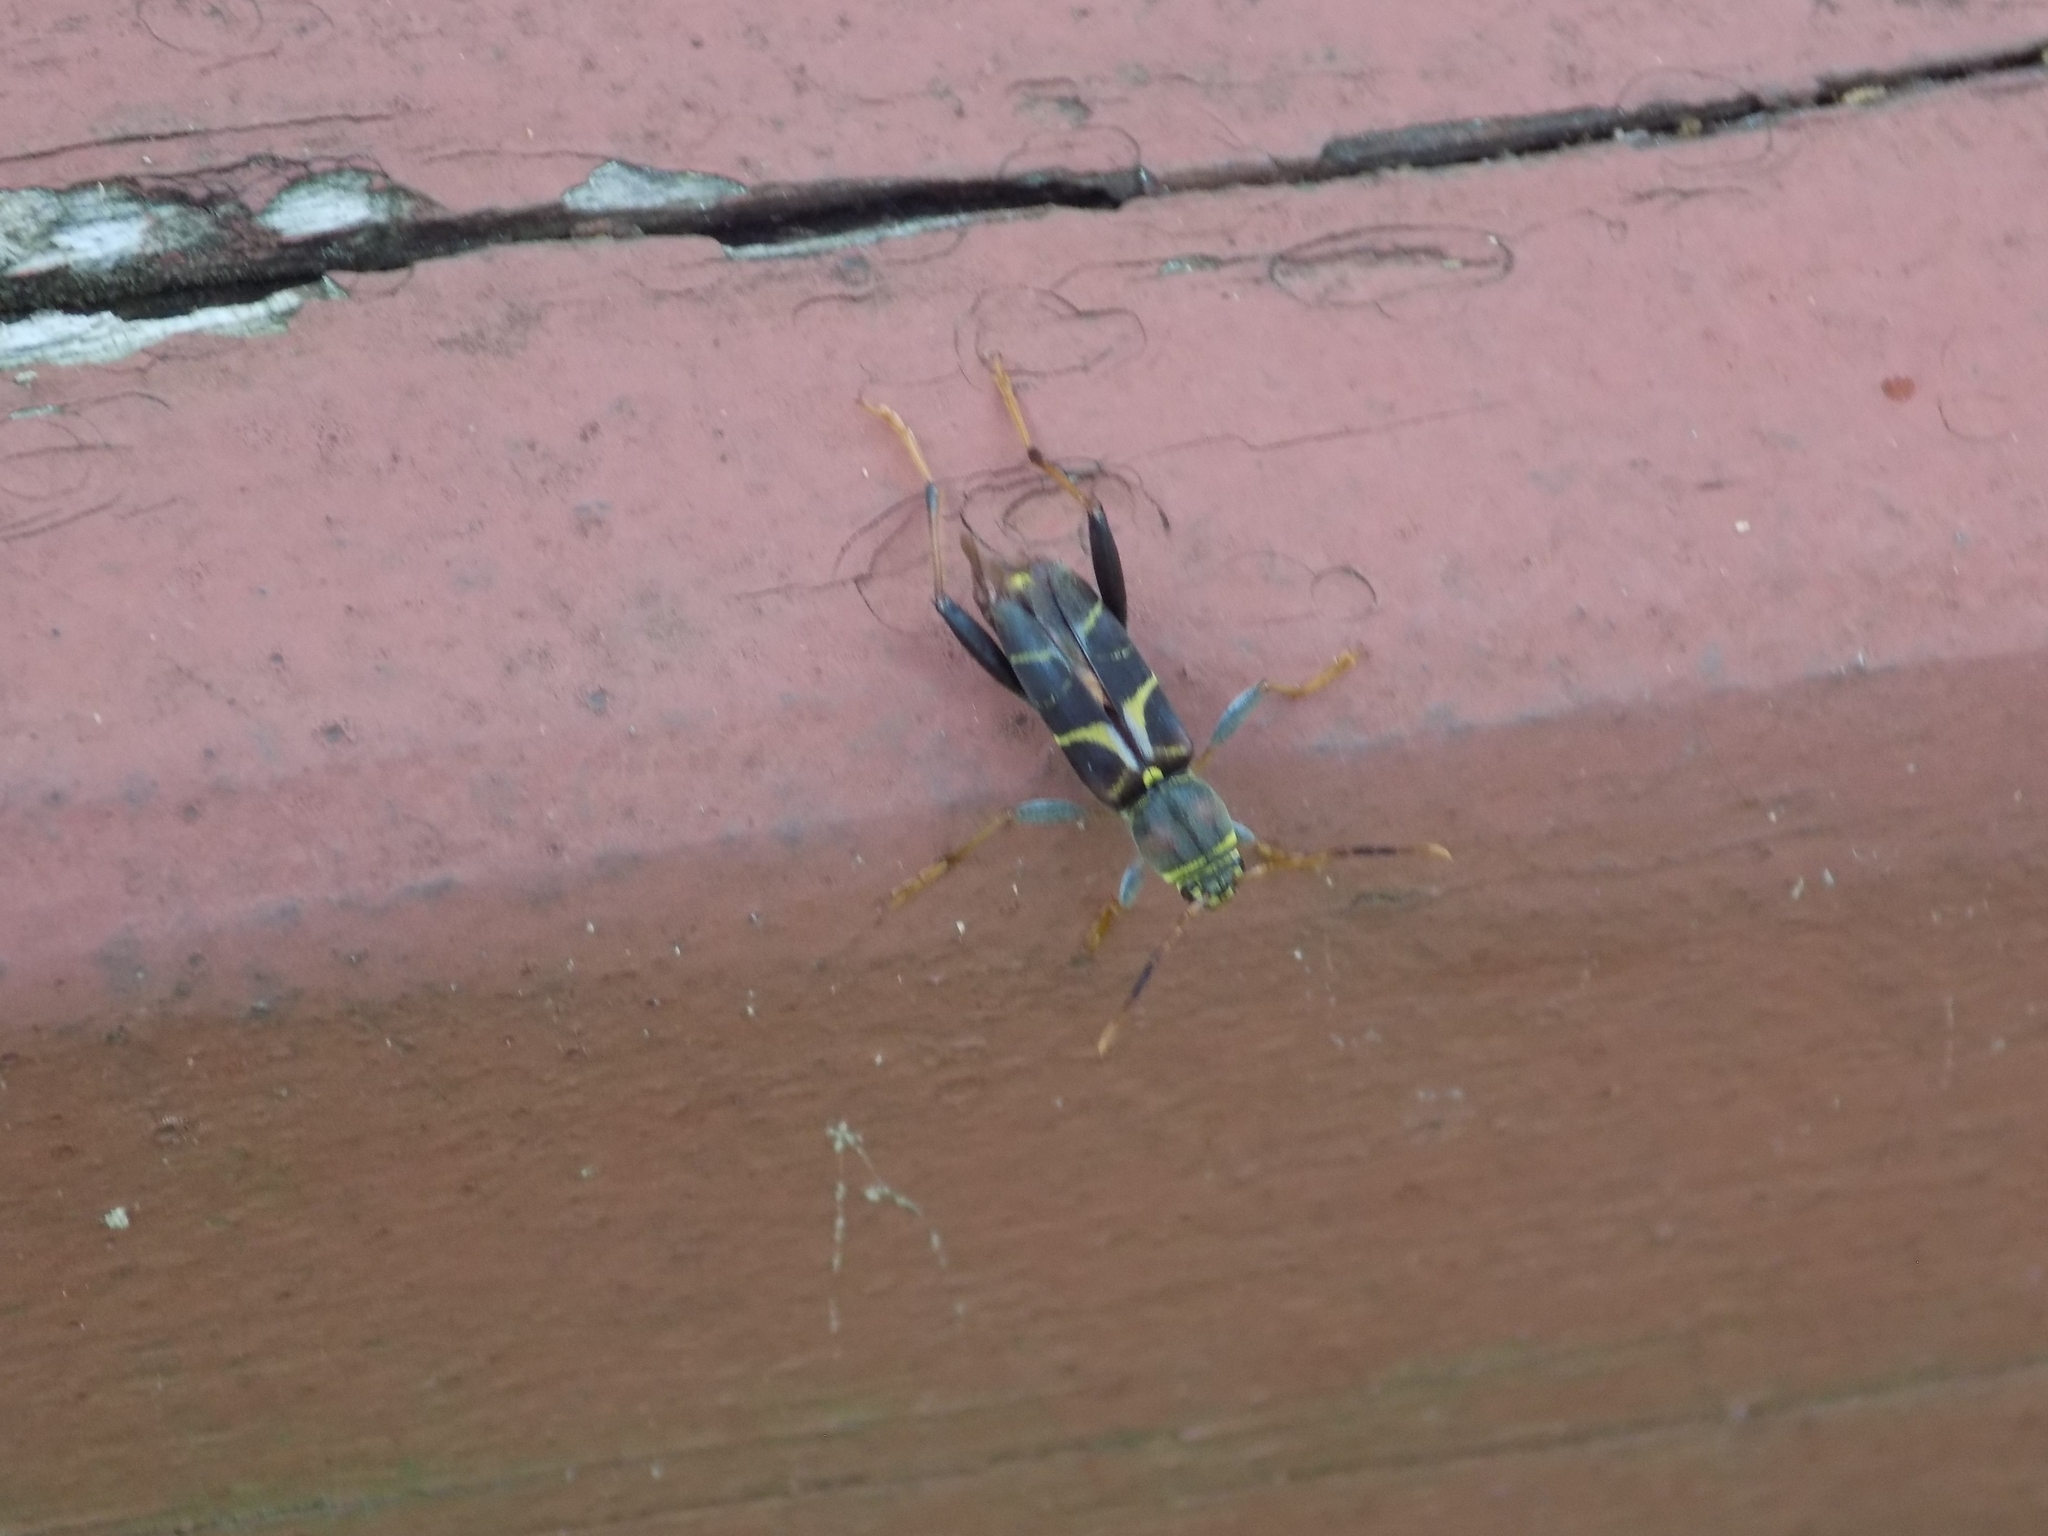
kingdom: Animalia
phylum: Arthropoda
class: Insecta
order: Coleoptera
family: Cerambycidae
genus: Neoclytus
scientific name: Neoclytus scutellaris
